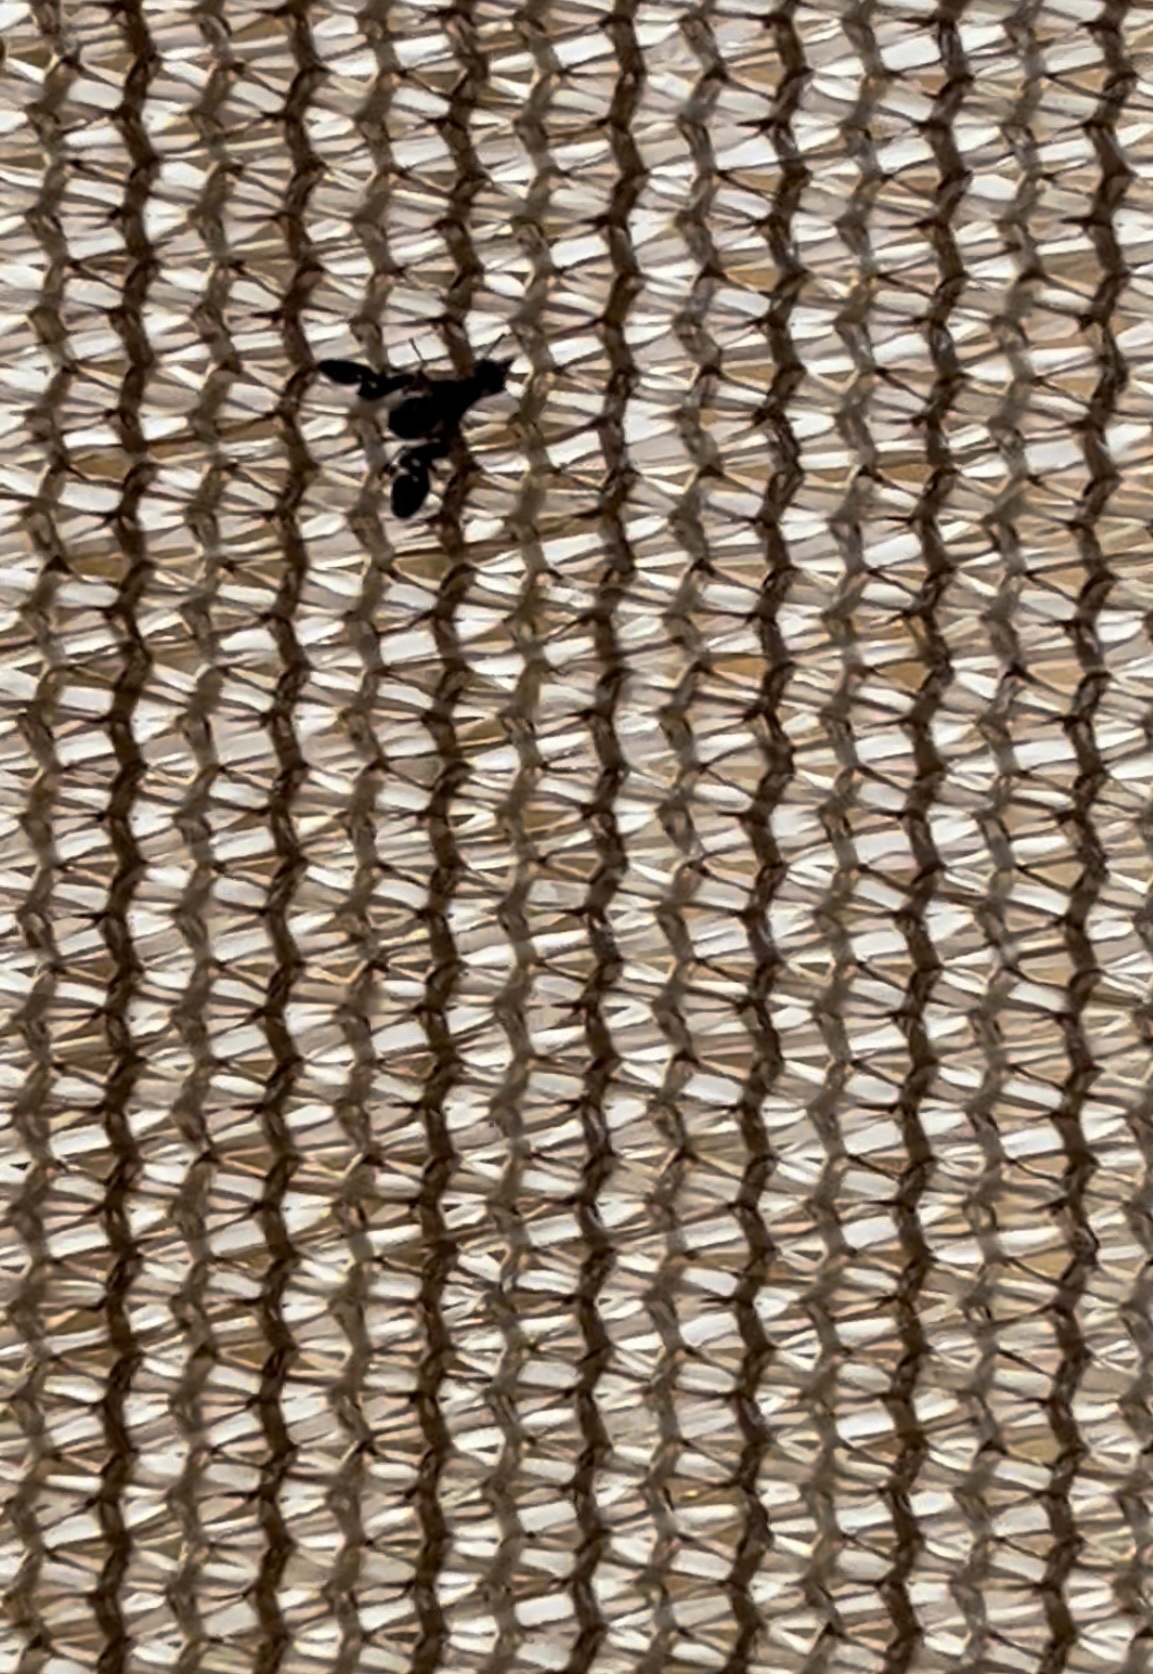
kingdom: Animalia
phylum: Arthropoda
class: Insecta
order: Diptera
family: Ulidiidae
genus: Delphinia
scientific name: Delphinia picta
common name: Common picture-winged fly
